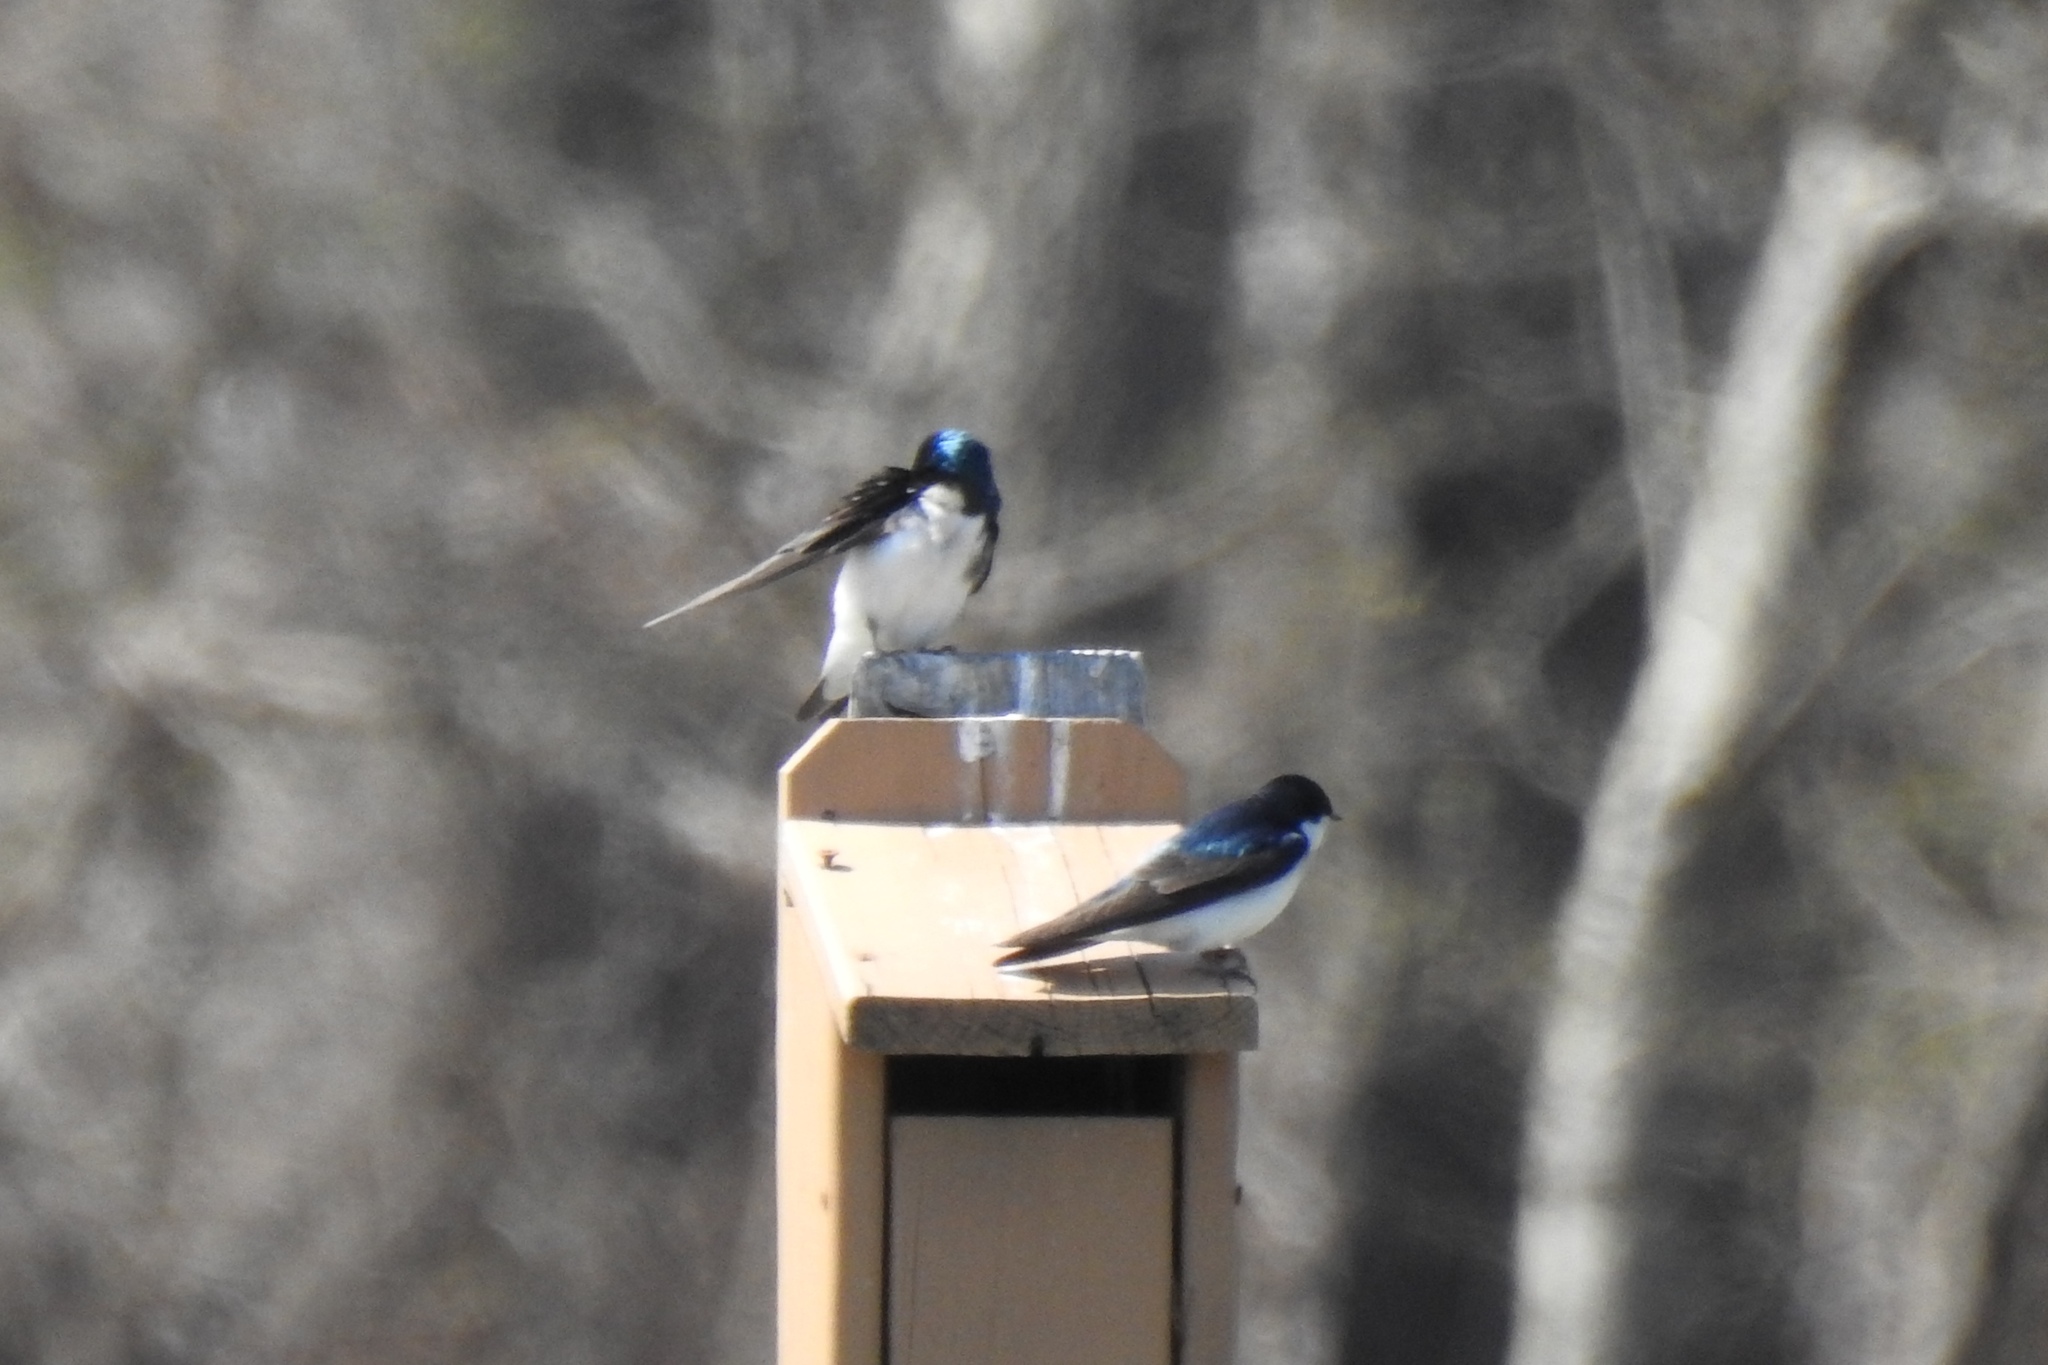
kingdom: Animalia
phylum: Chordata
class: Aves
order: Passeriformes
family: Hirundinidae
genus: Tachycineta
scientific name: Tachycineta bicolor
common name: Tree swallow
